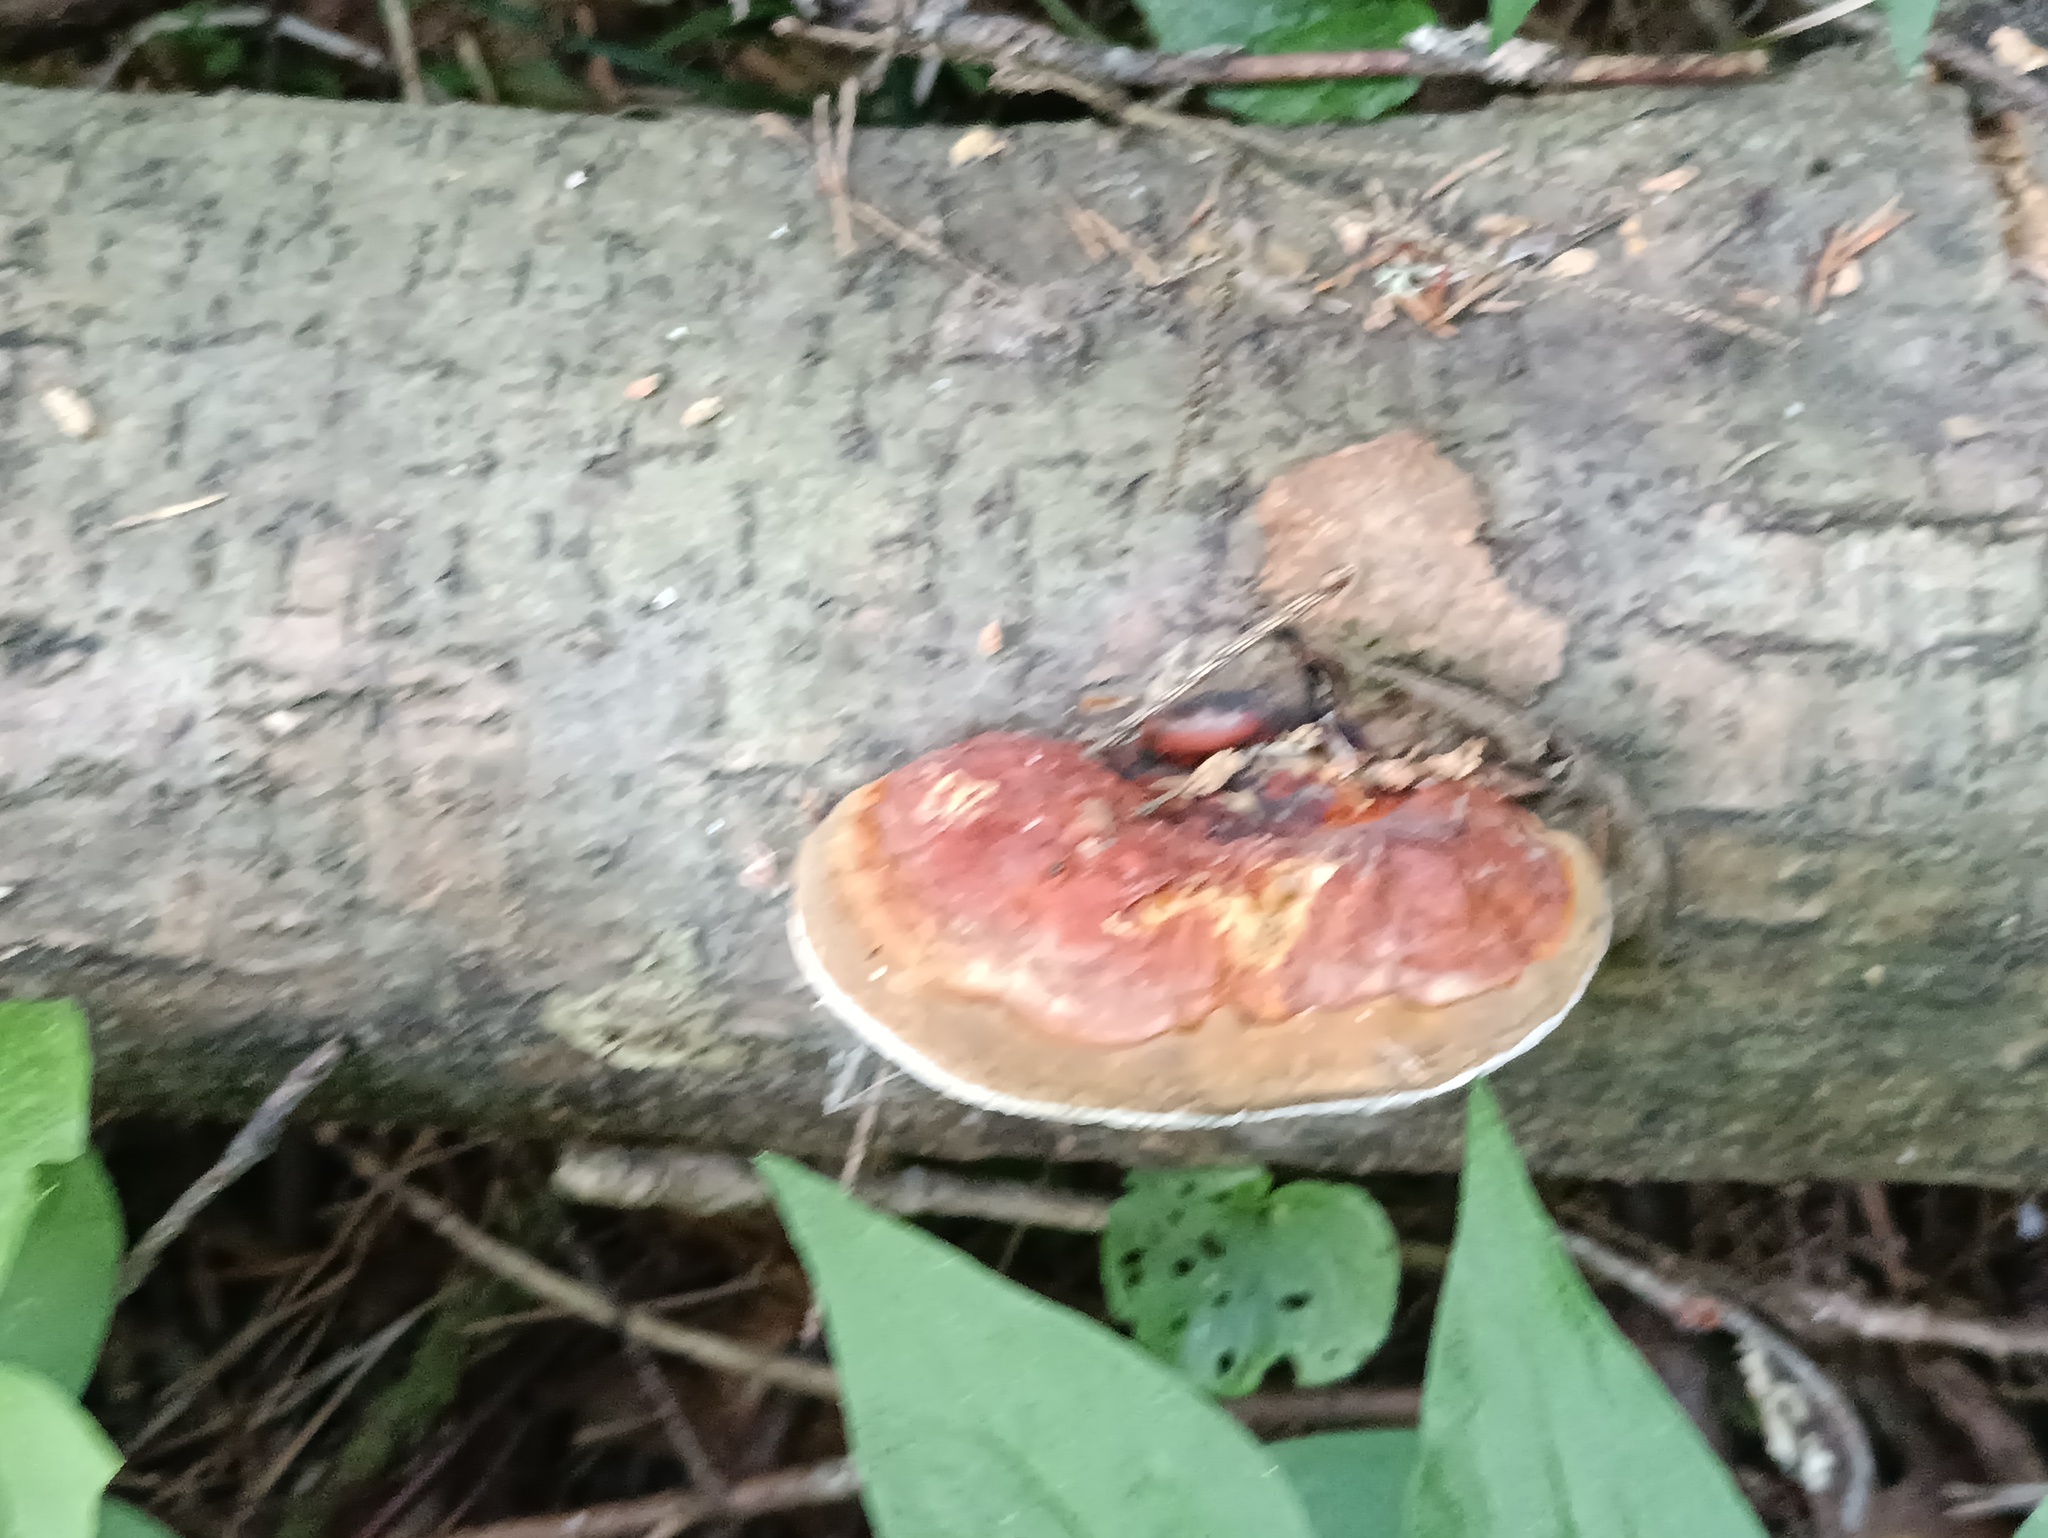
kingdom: Fungi
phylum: Basidiomycota
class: Agaricomycetes
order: Polyporales
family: Fomitopsidaceae
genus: Fomitopsis
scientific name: Fomitopsis pinicola
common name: Red-belted bracket
